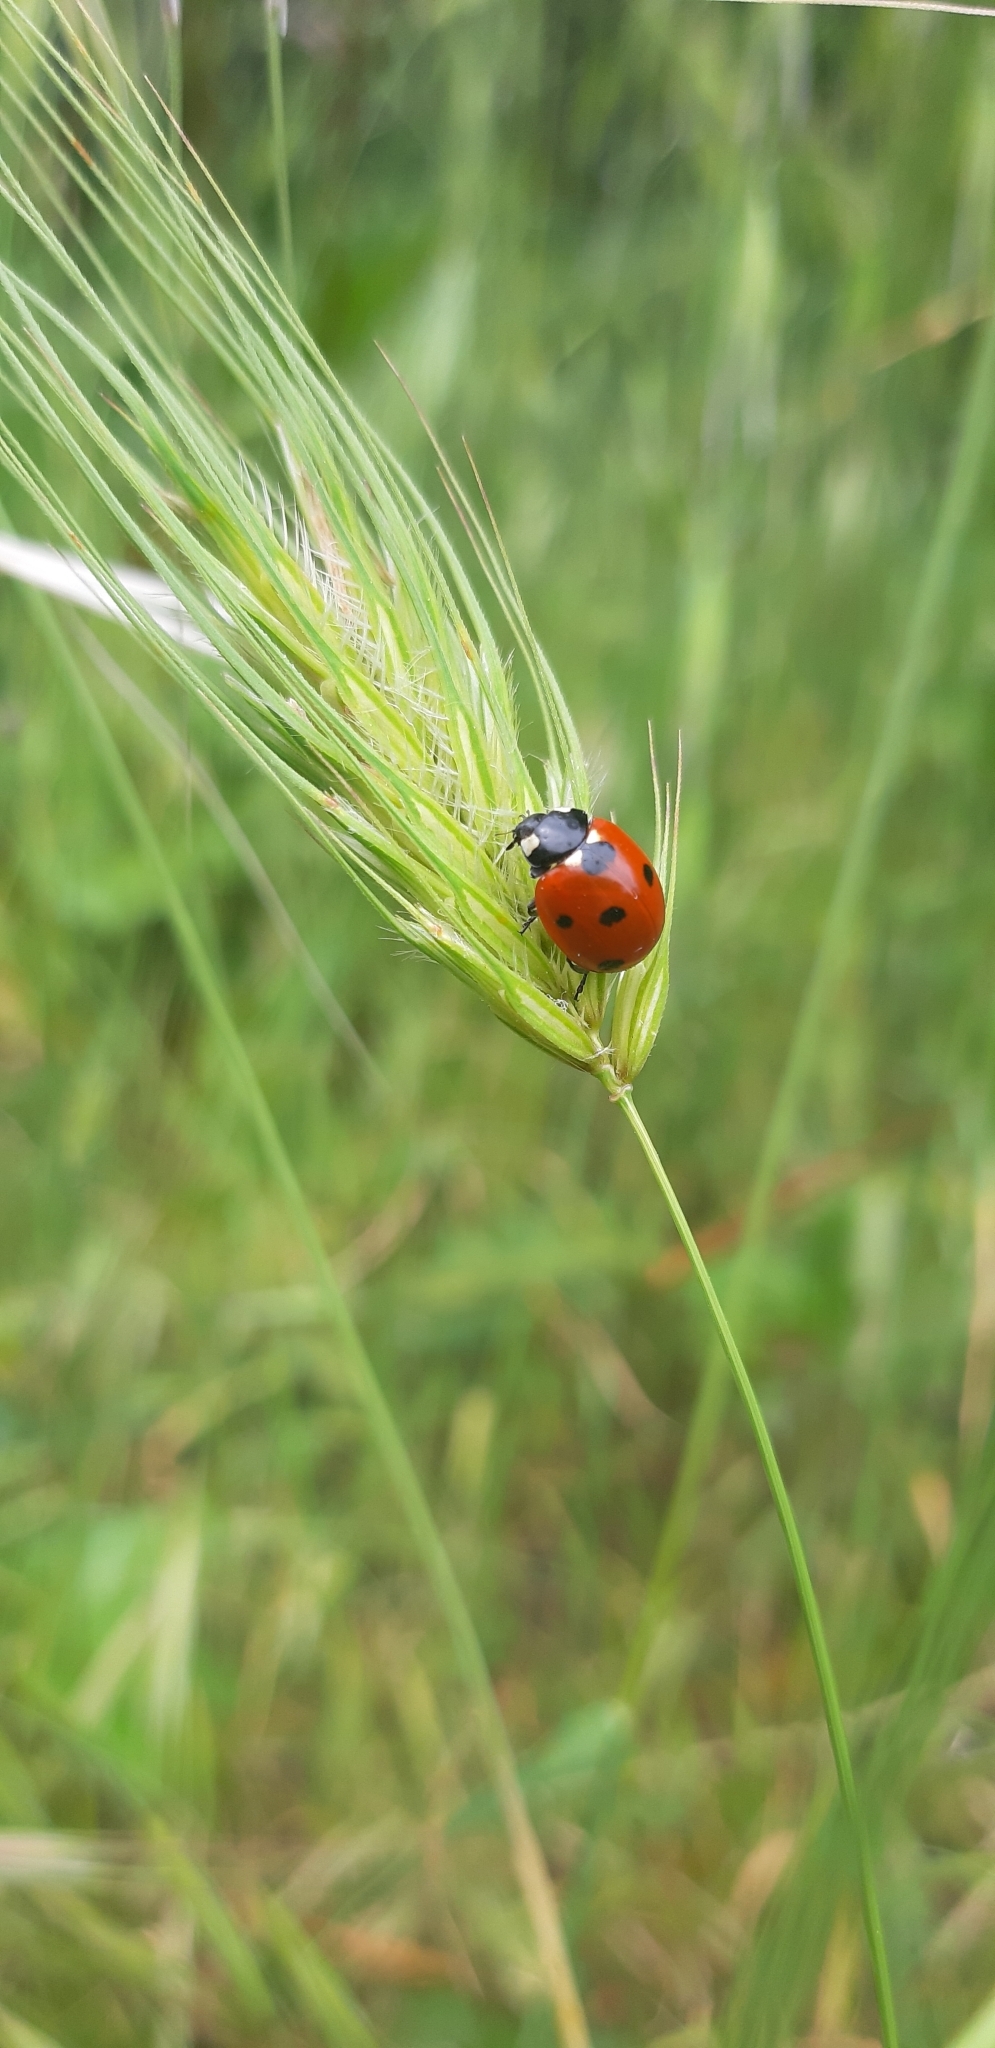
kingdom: Animalia
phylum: Arthropoda
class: Insecta
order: Coleoptera
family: Coccinellidae
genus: Coccinella
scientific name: Coccinella septempunctata
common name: Sevenspotted lady beetle
